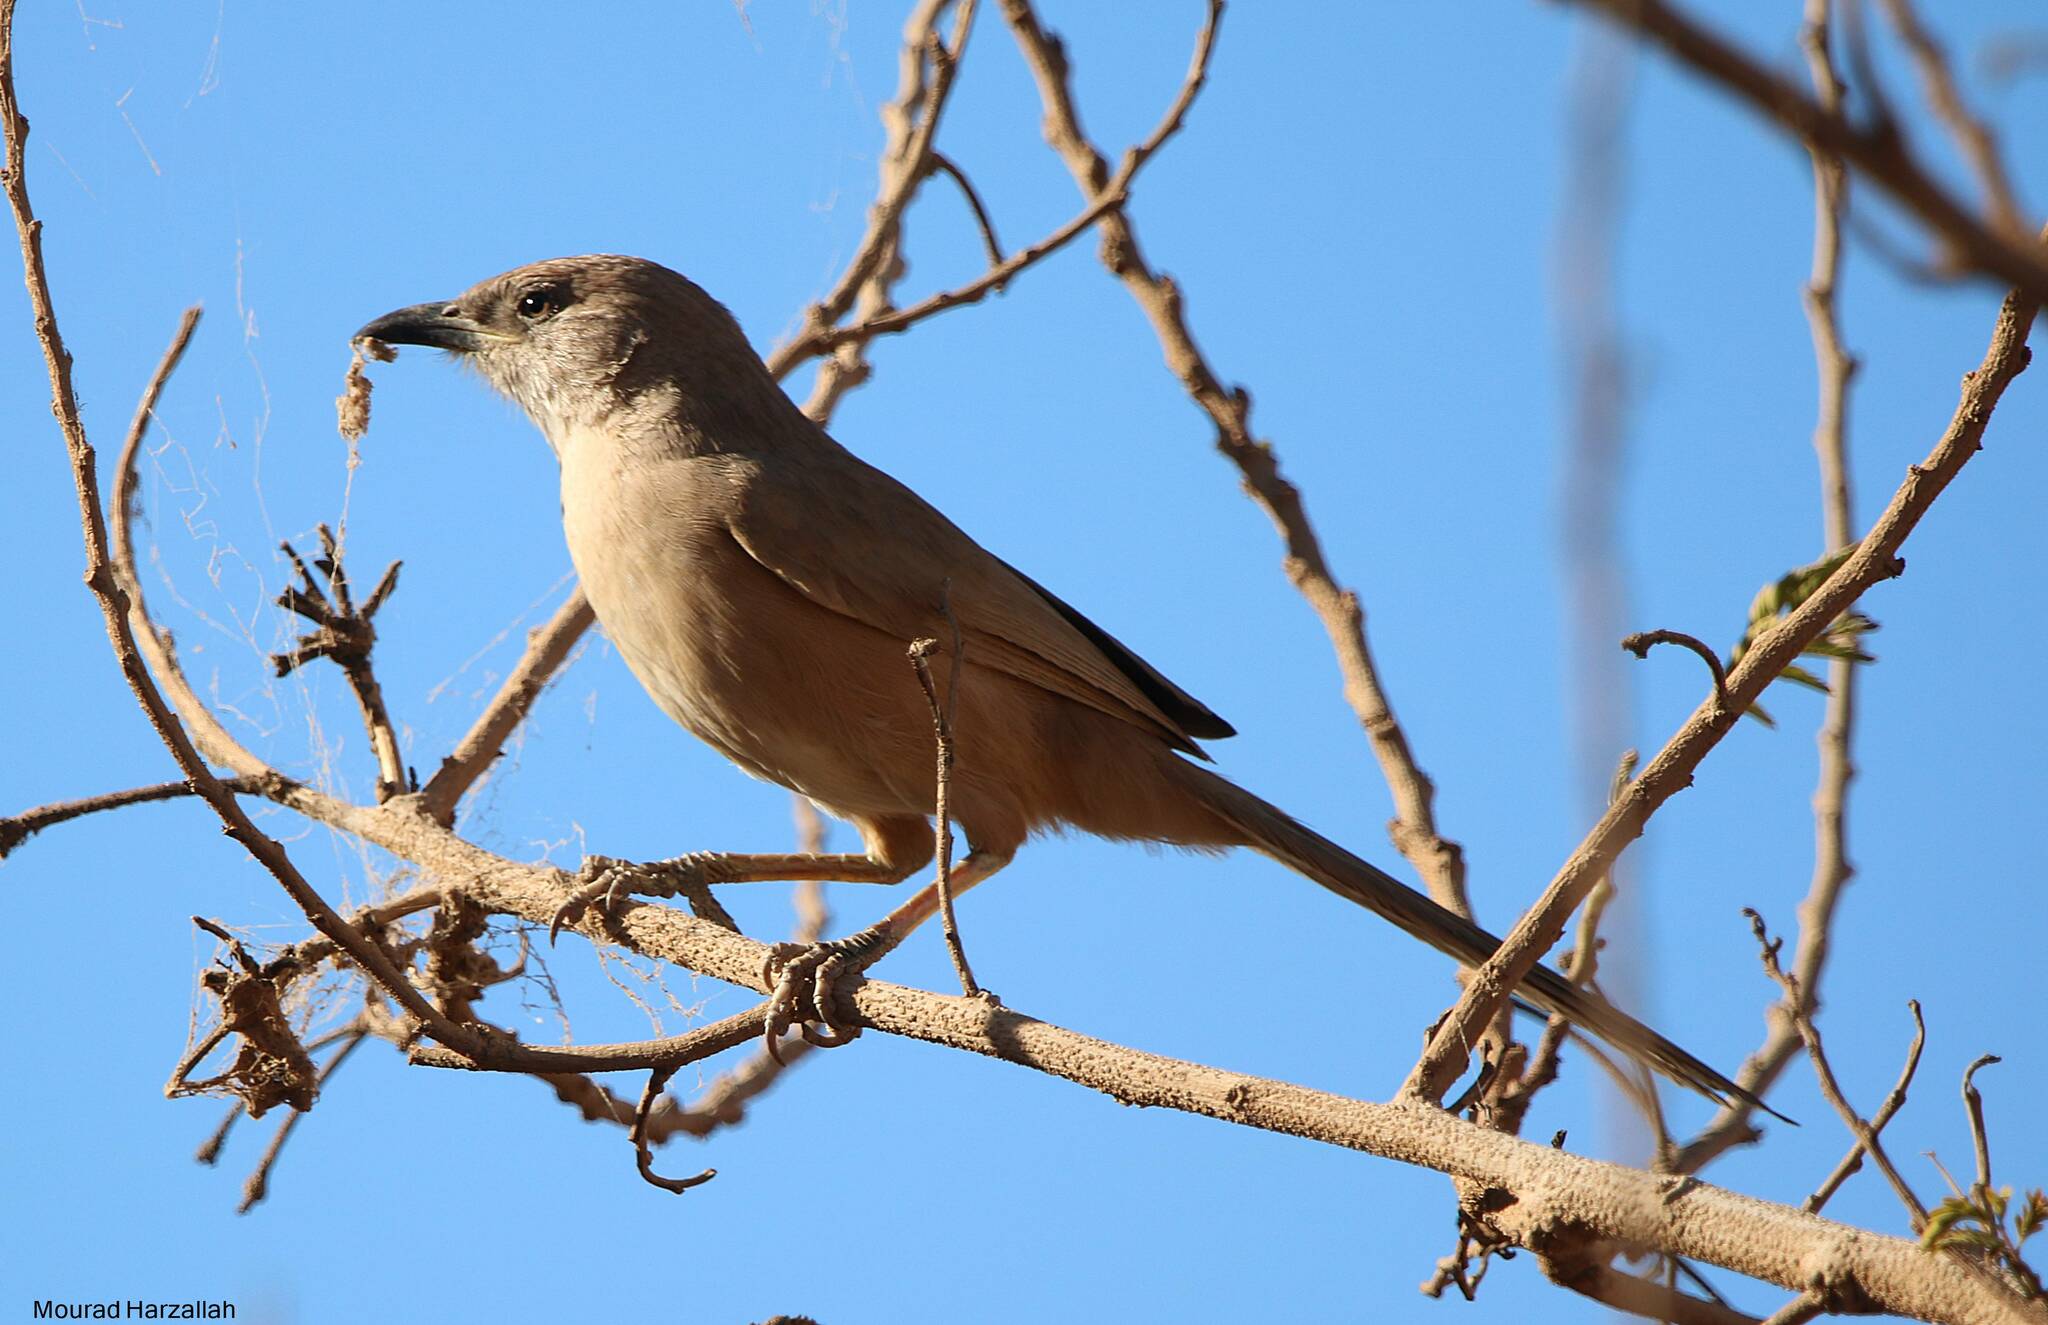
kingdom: Animalia
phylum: Chordata
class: Aves
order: Passeriformes
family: Leiothrichidae
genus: Turdoides
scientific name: Turdoides fulva
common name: Fulvous babbler
